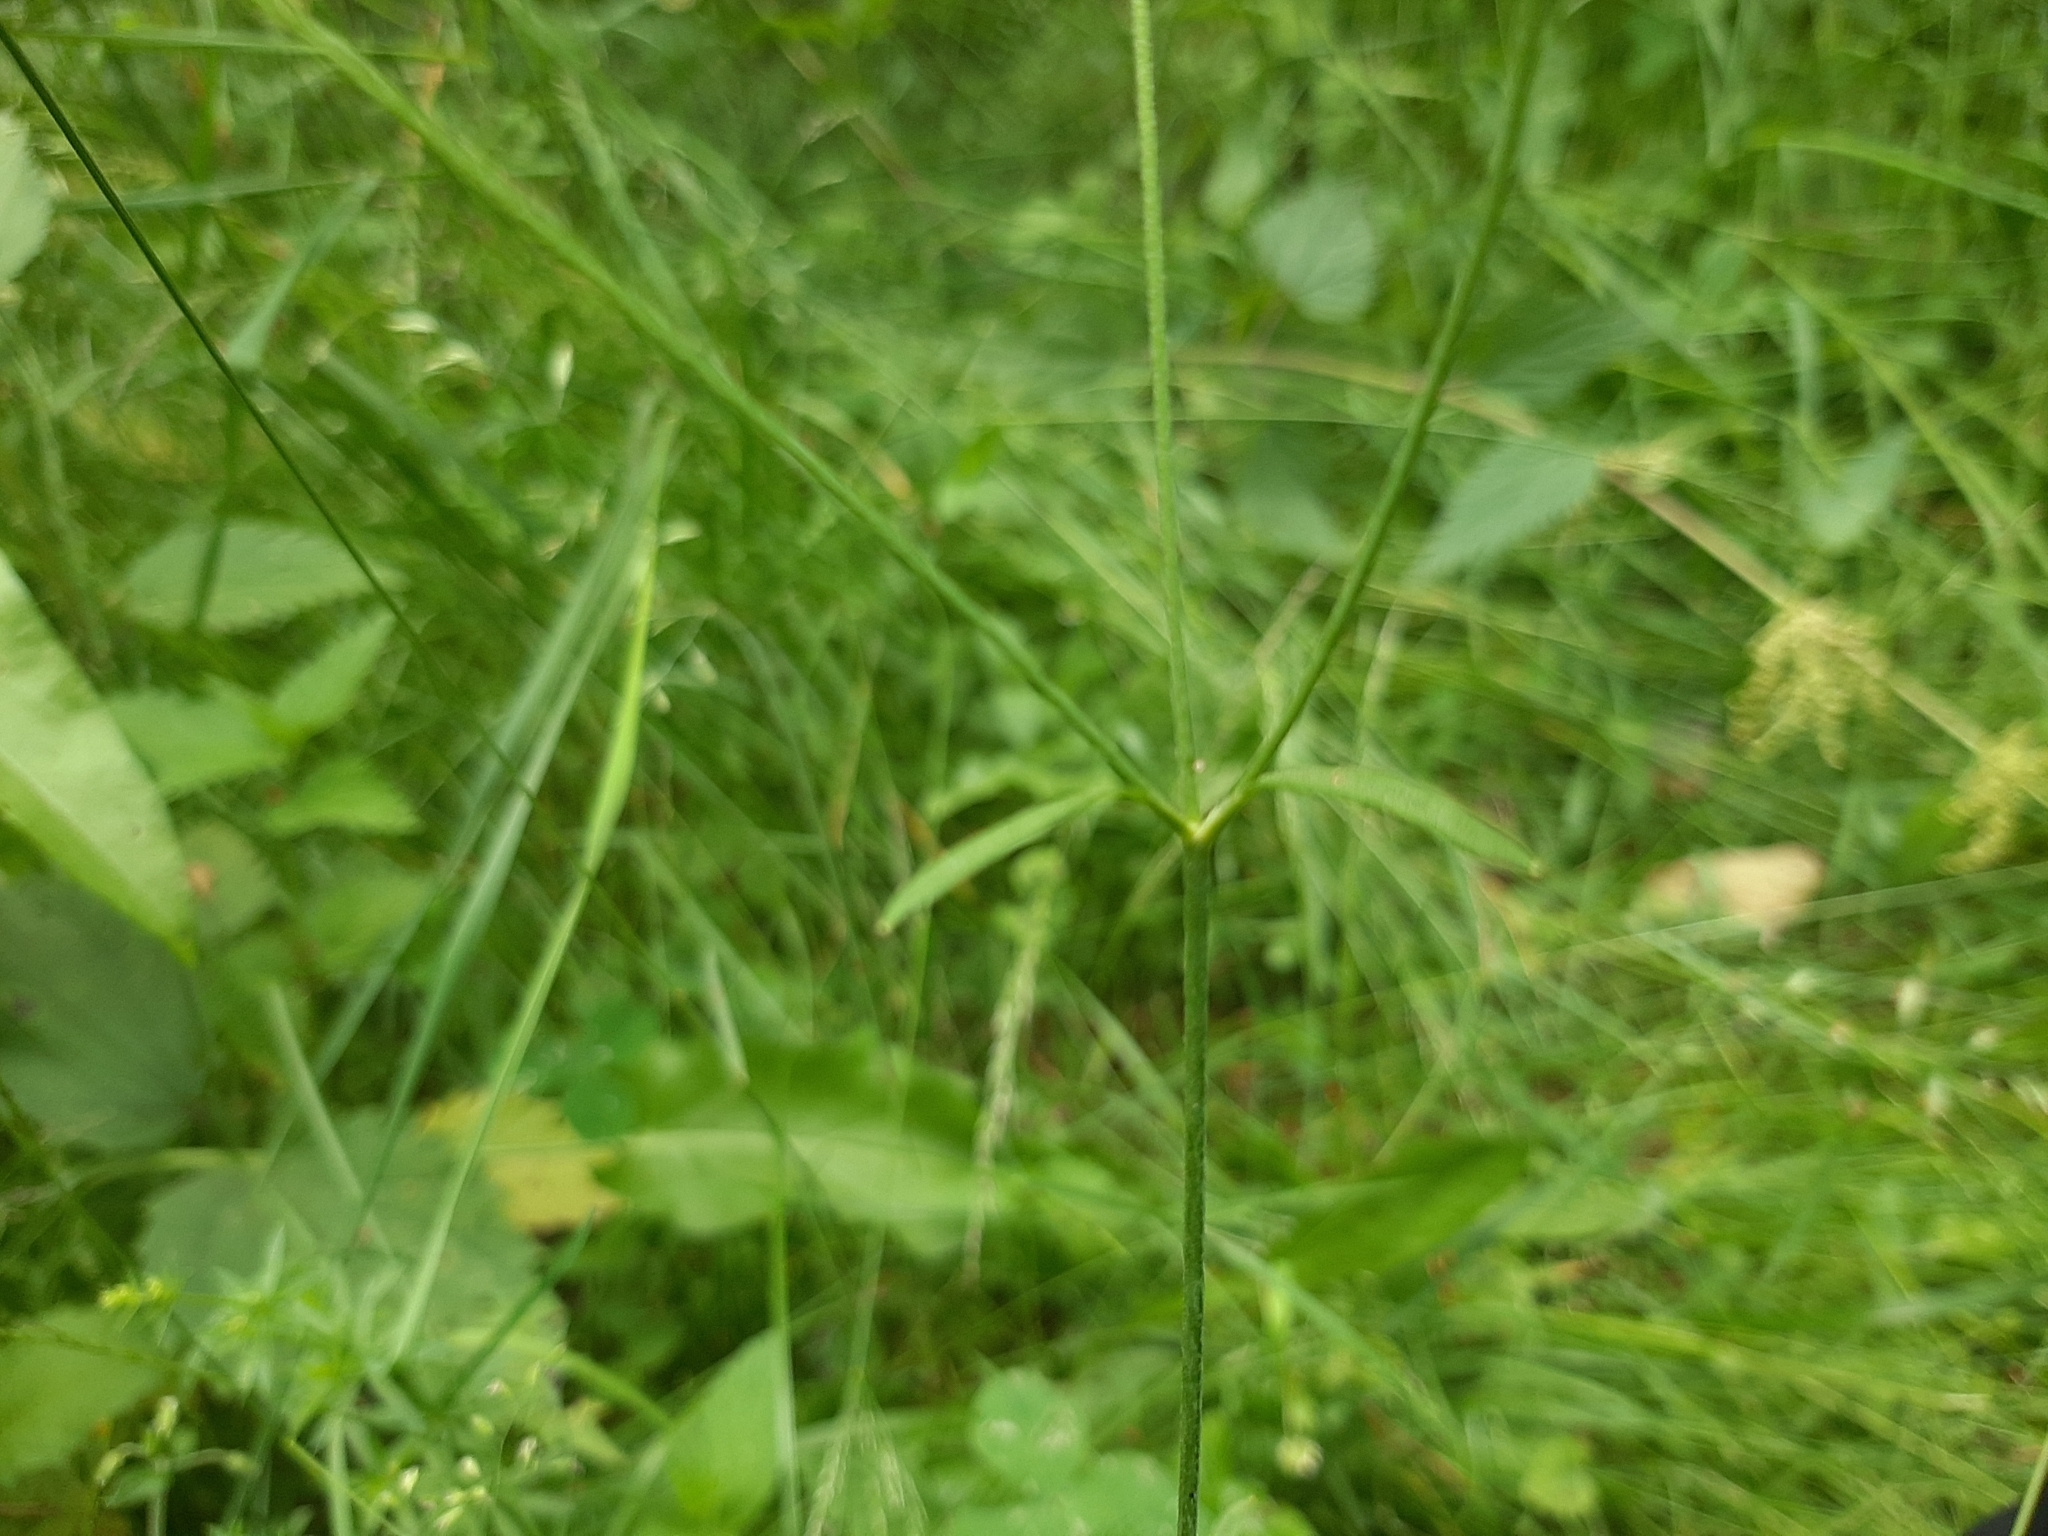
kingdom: Plantae
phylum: Tracheophyta
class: Magnoliopsida
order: Ranunculales
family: Ranunculaceae
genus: Ranunculus
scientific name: Ranunculus acris
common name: Meadow buttercup
